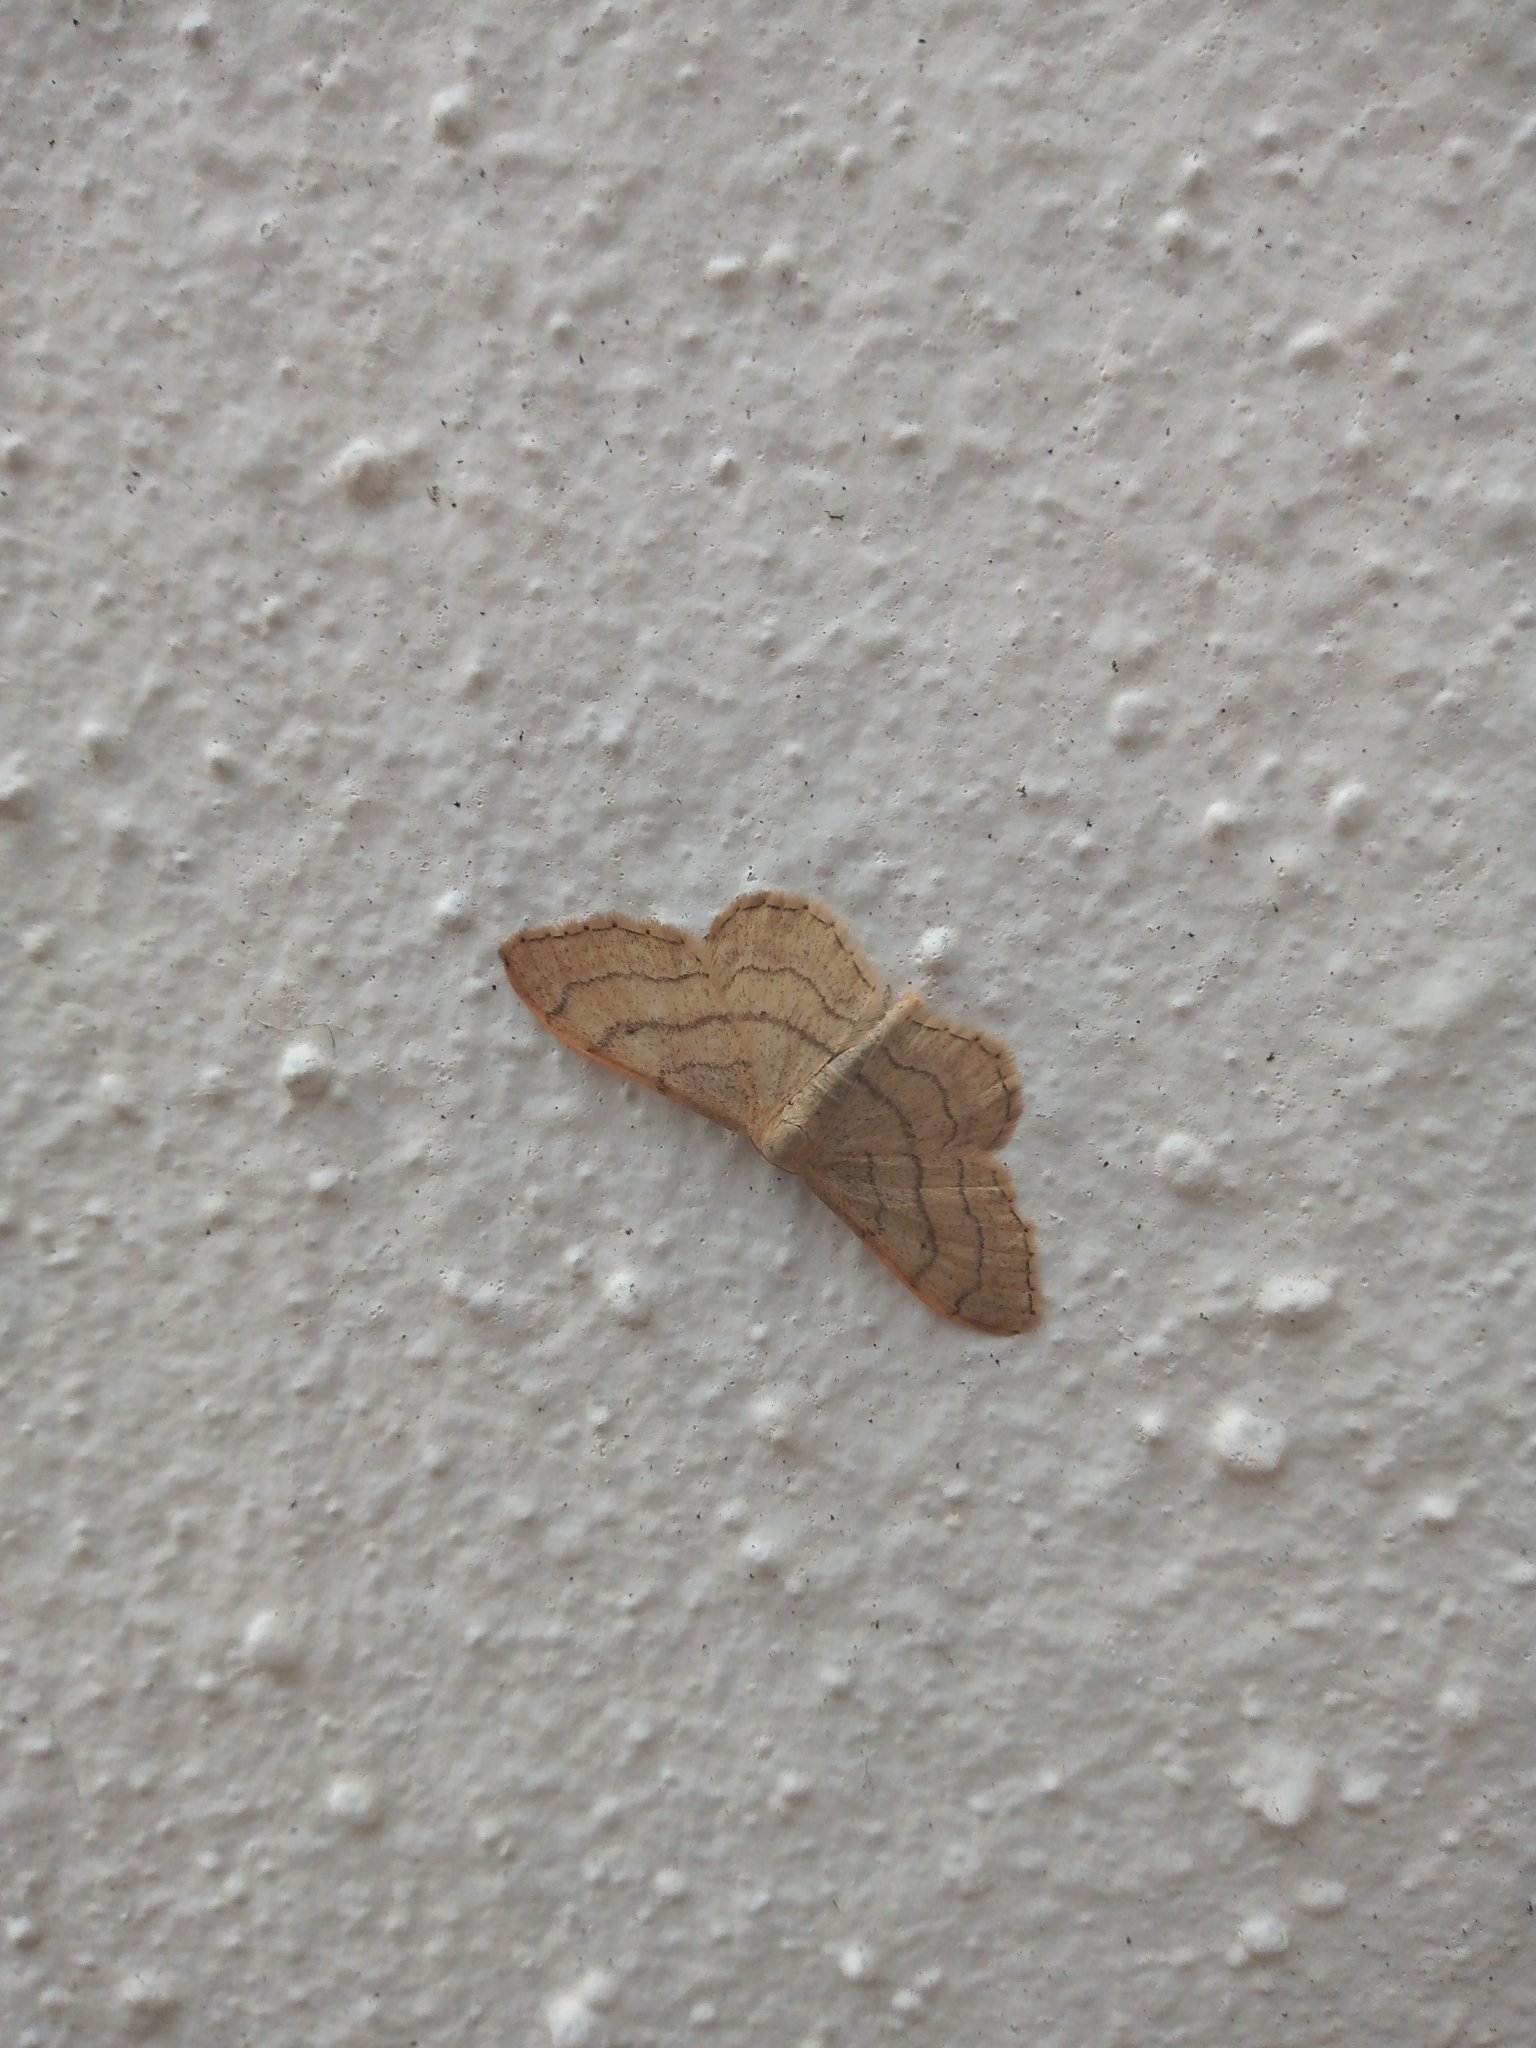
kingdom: Animalia
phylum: Arthropoda
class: Insecta
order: Lepidoptera
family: Geometridae
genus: Idaea
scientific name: Idaea aversata
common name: Riband wave
